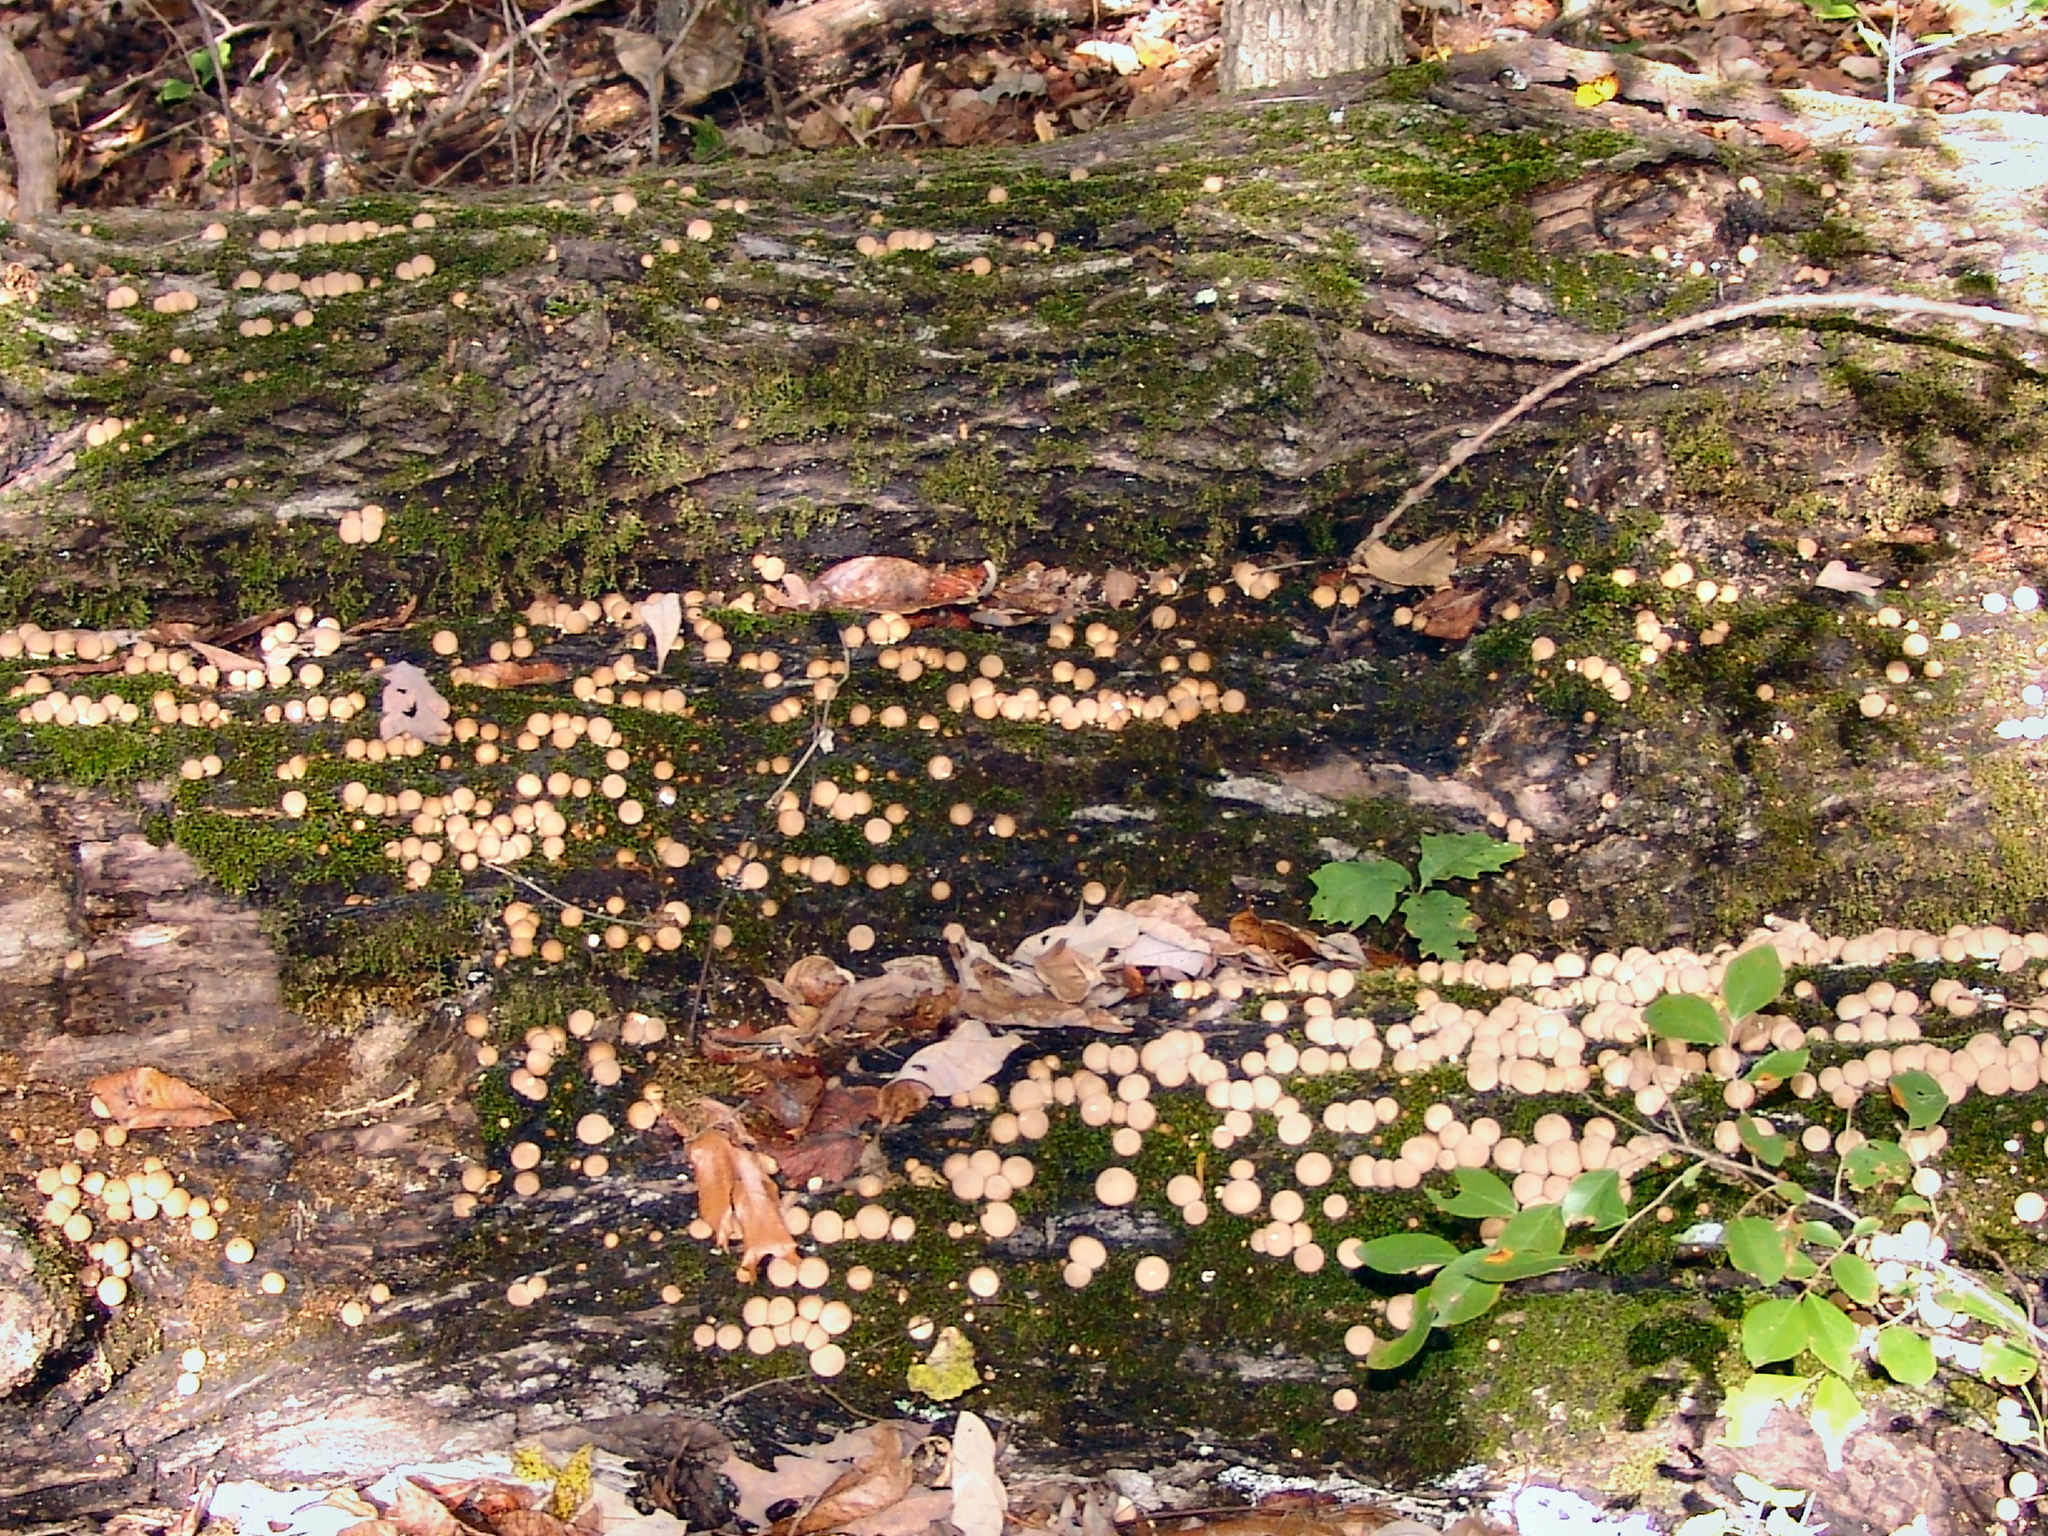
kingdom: Fungi
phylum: Basidiomycota
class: Agaricomycetes
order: Agaricales
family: Lycoperdaceae
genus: Apioperdon
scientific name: Apioperdon pyriforme
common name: Pear-shaped puffball
